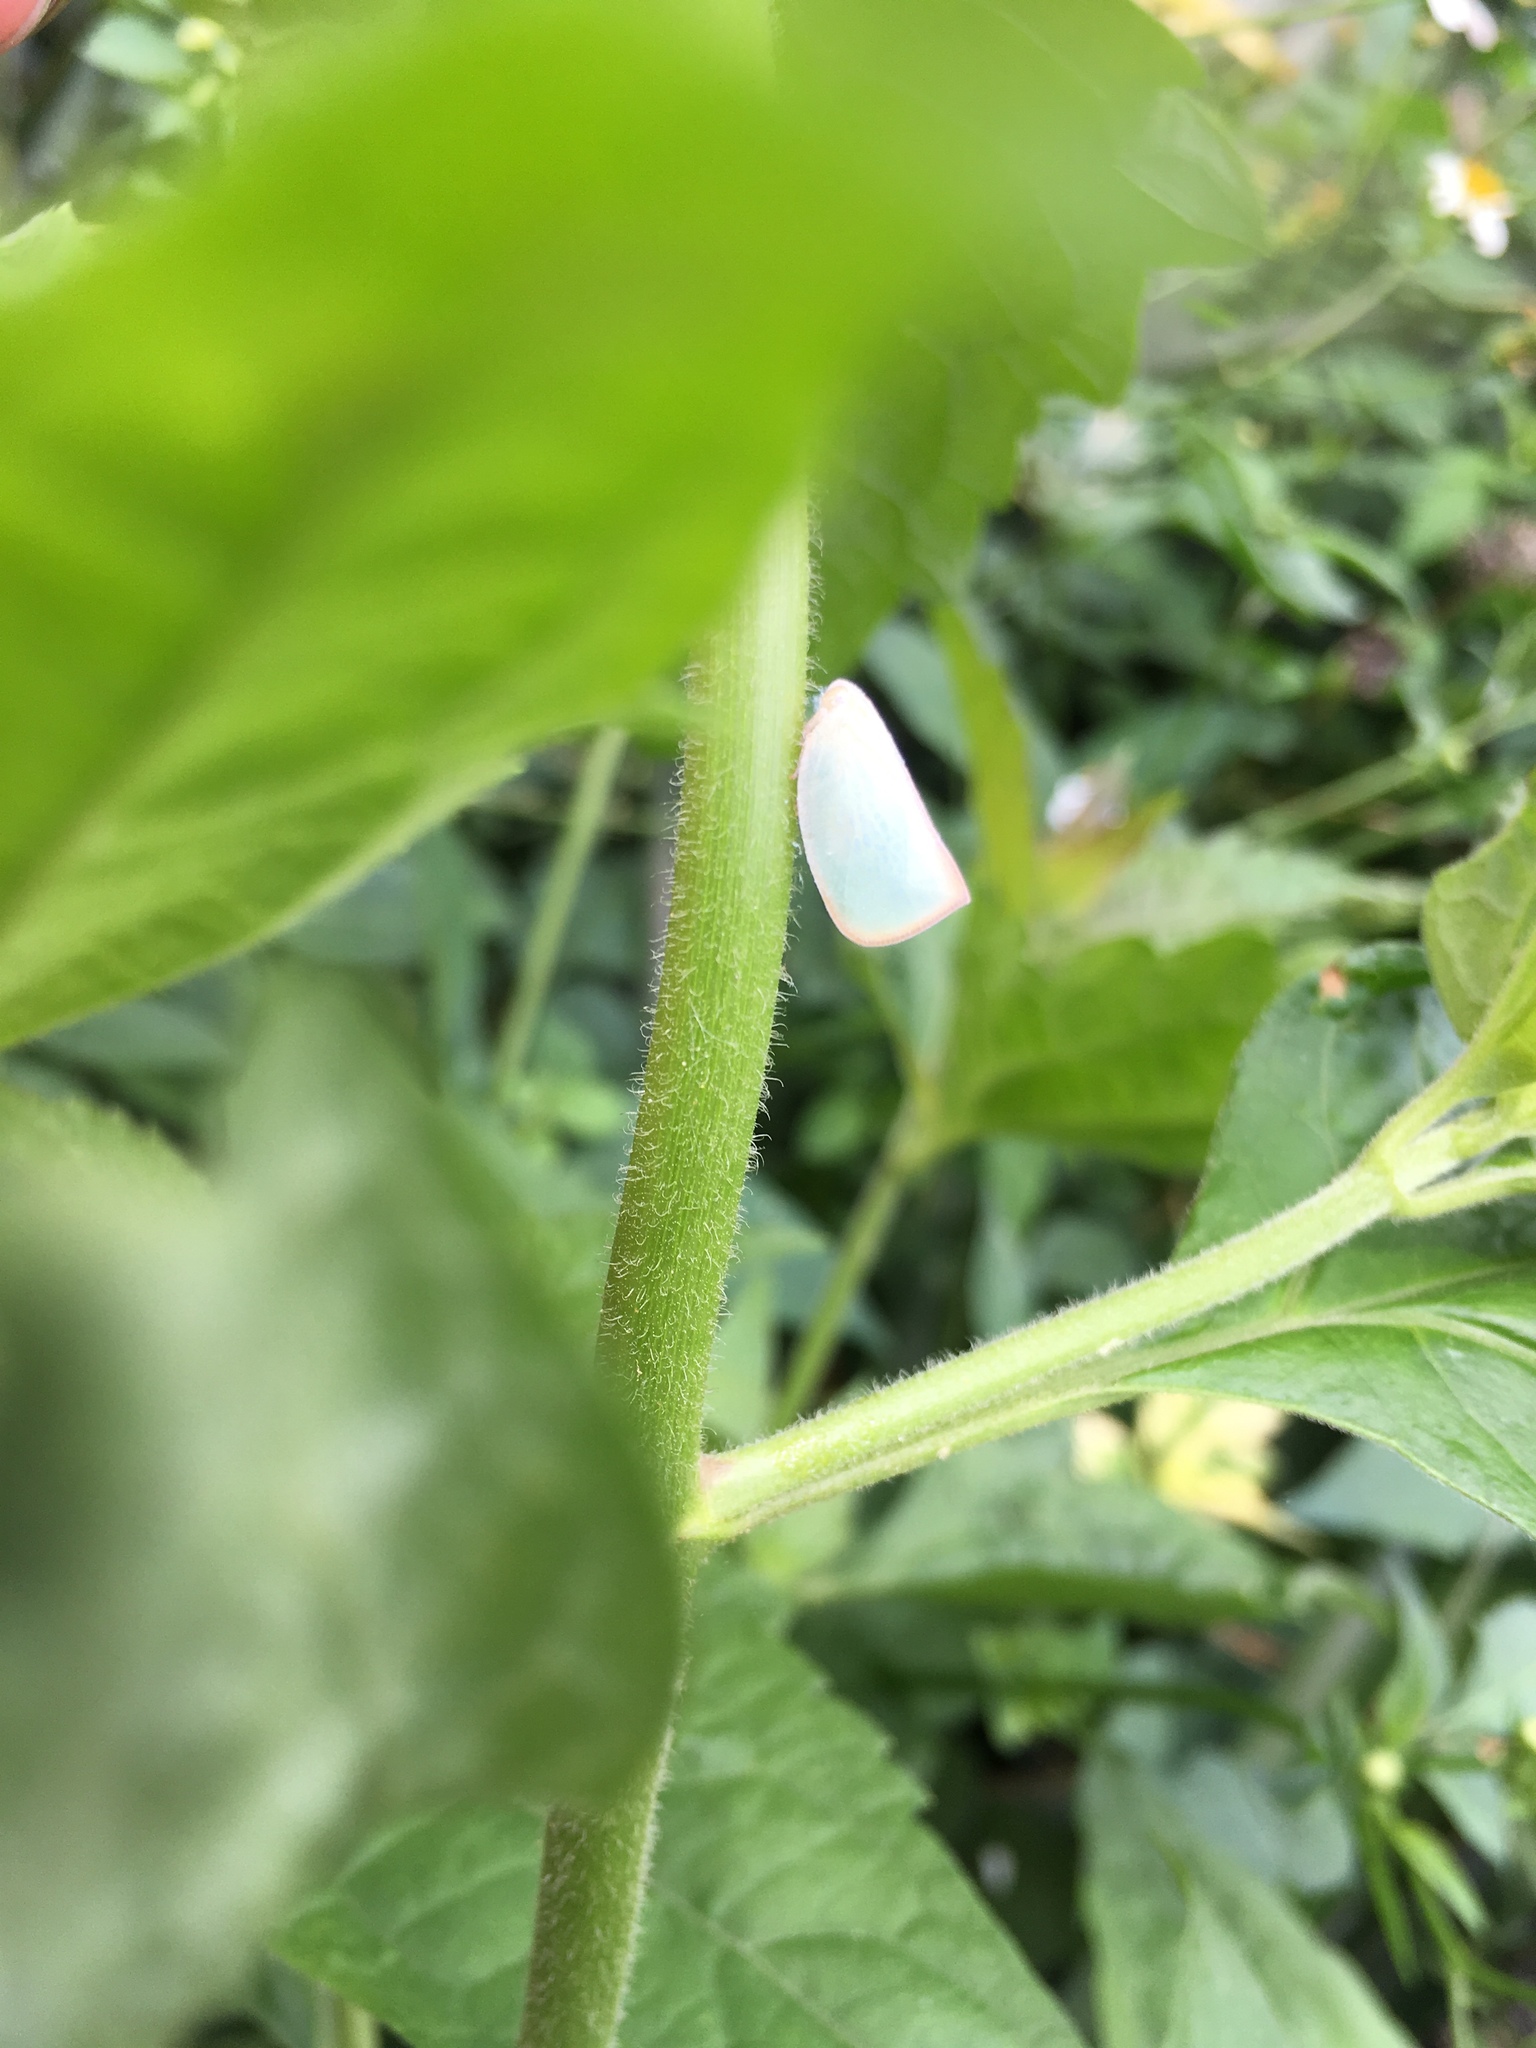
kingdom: Animalia
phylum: Arthropoda
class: Insecta
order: Hemiptera
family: Flatidae
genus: Geisha
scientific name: Geisha distinctissima
